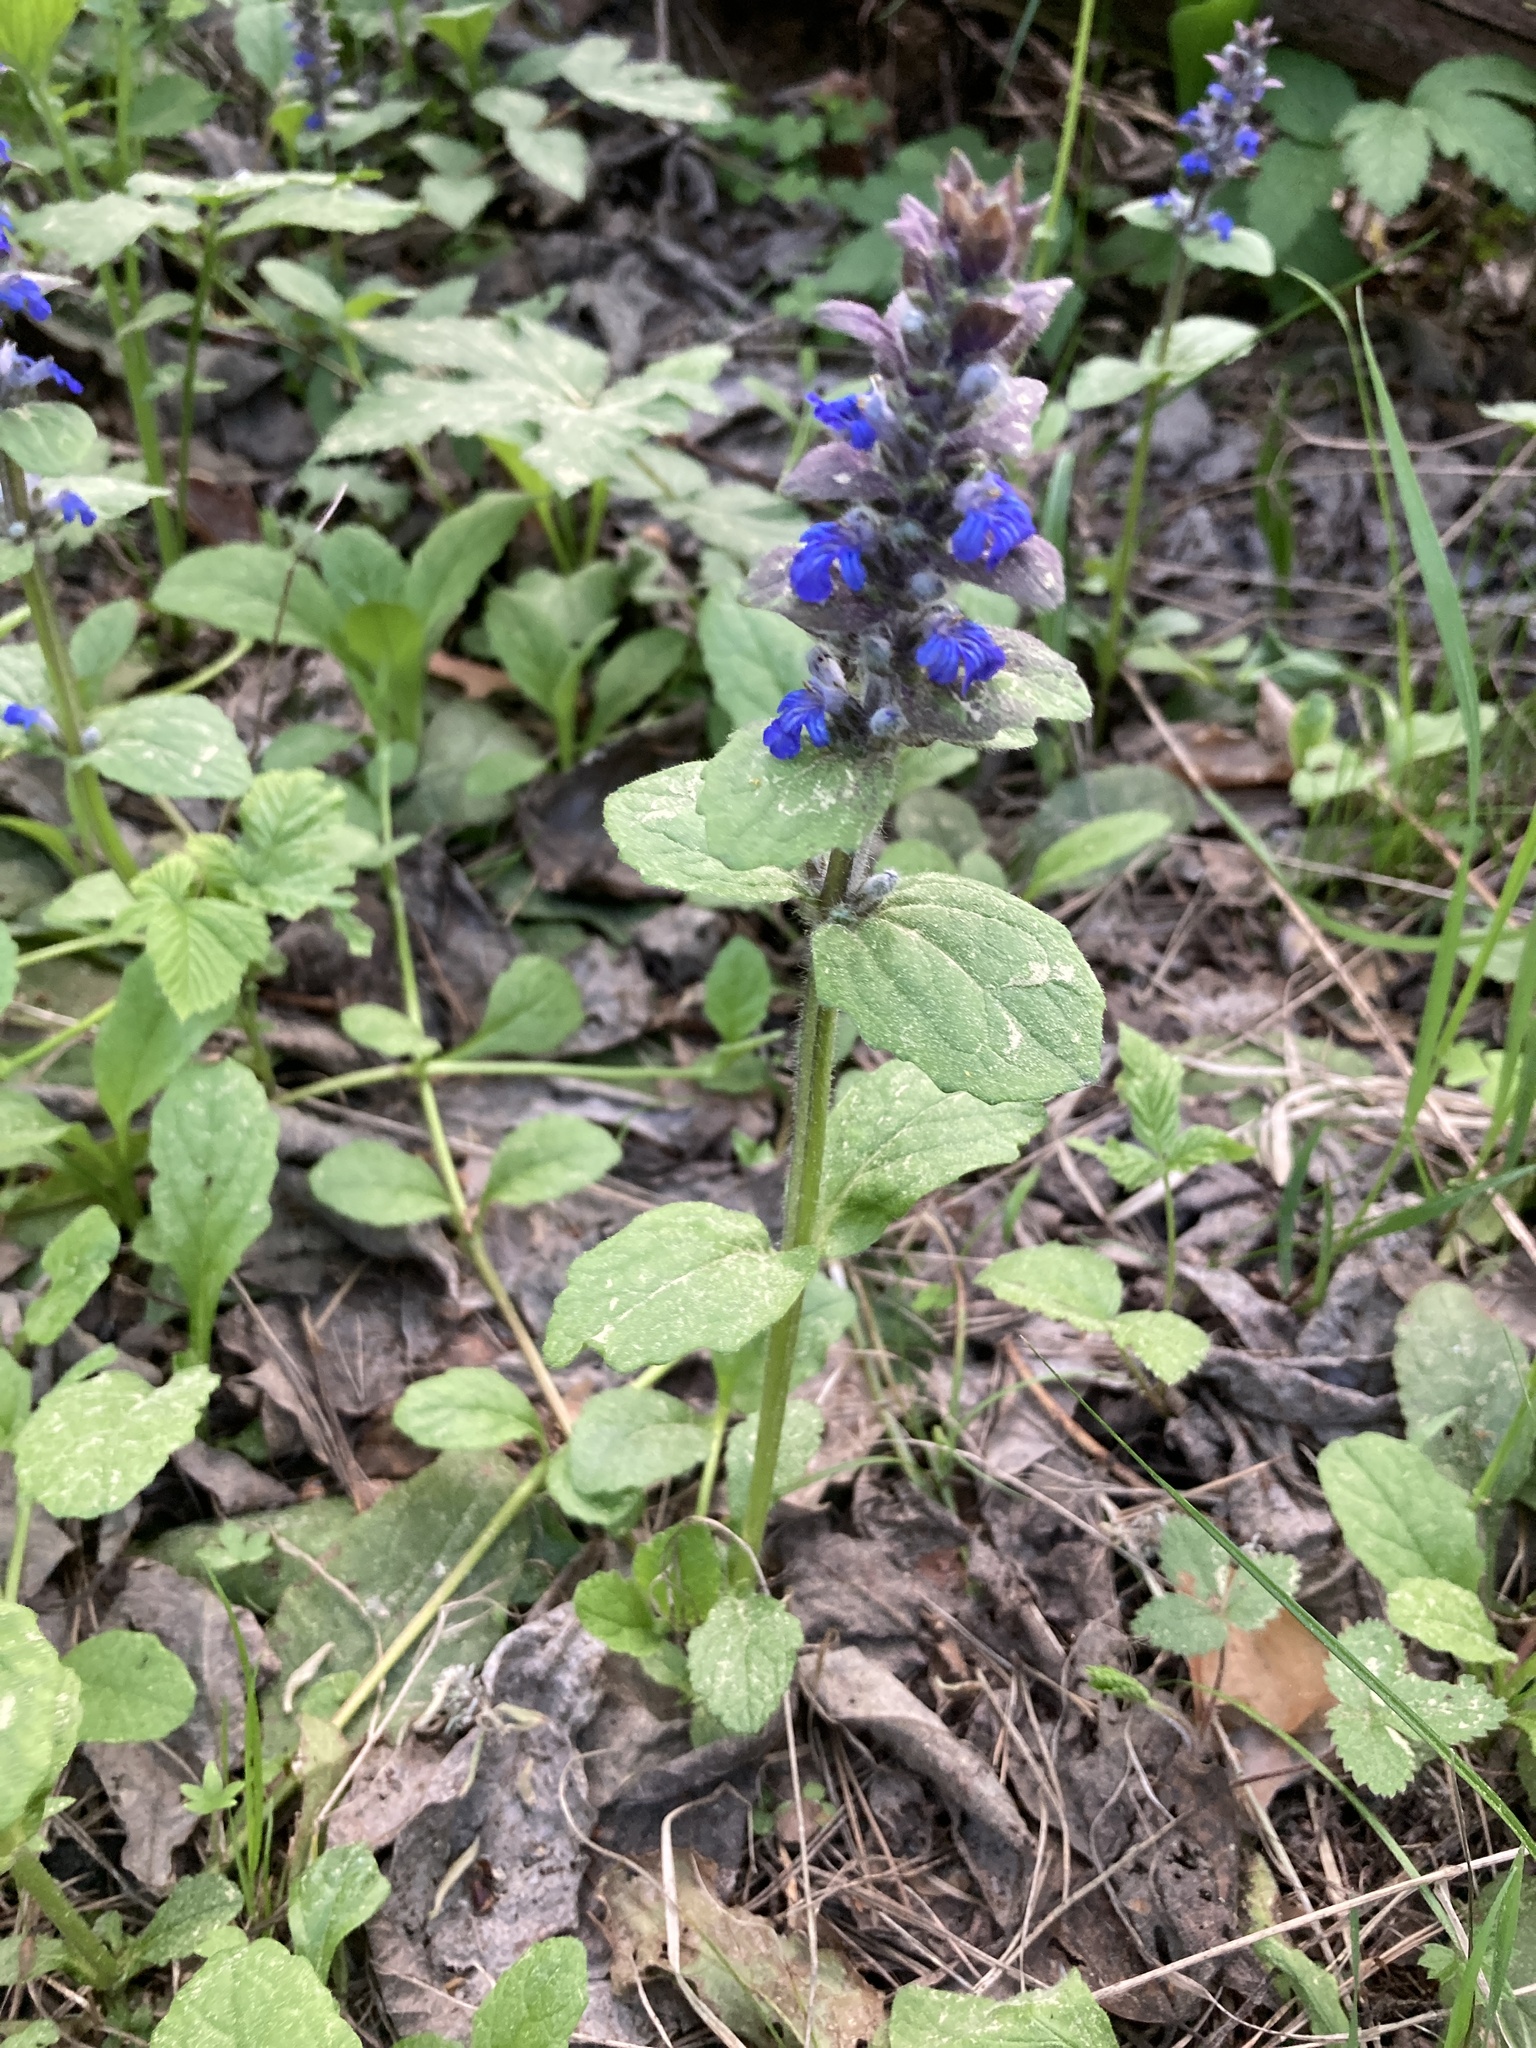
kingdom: Plantae
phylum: Tracheophyta
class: Magnoliopsida
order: Lamiales
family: Lamiaceae
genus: Ajuga
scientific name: Ajuga reptans
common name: Bugle
